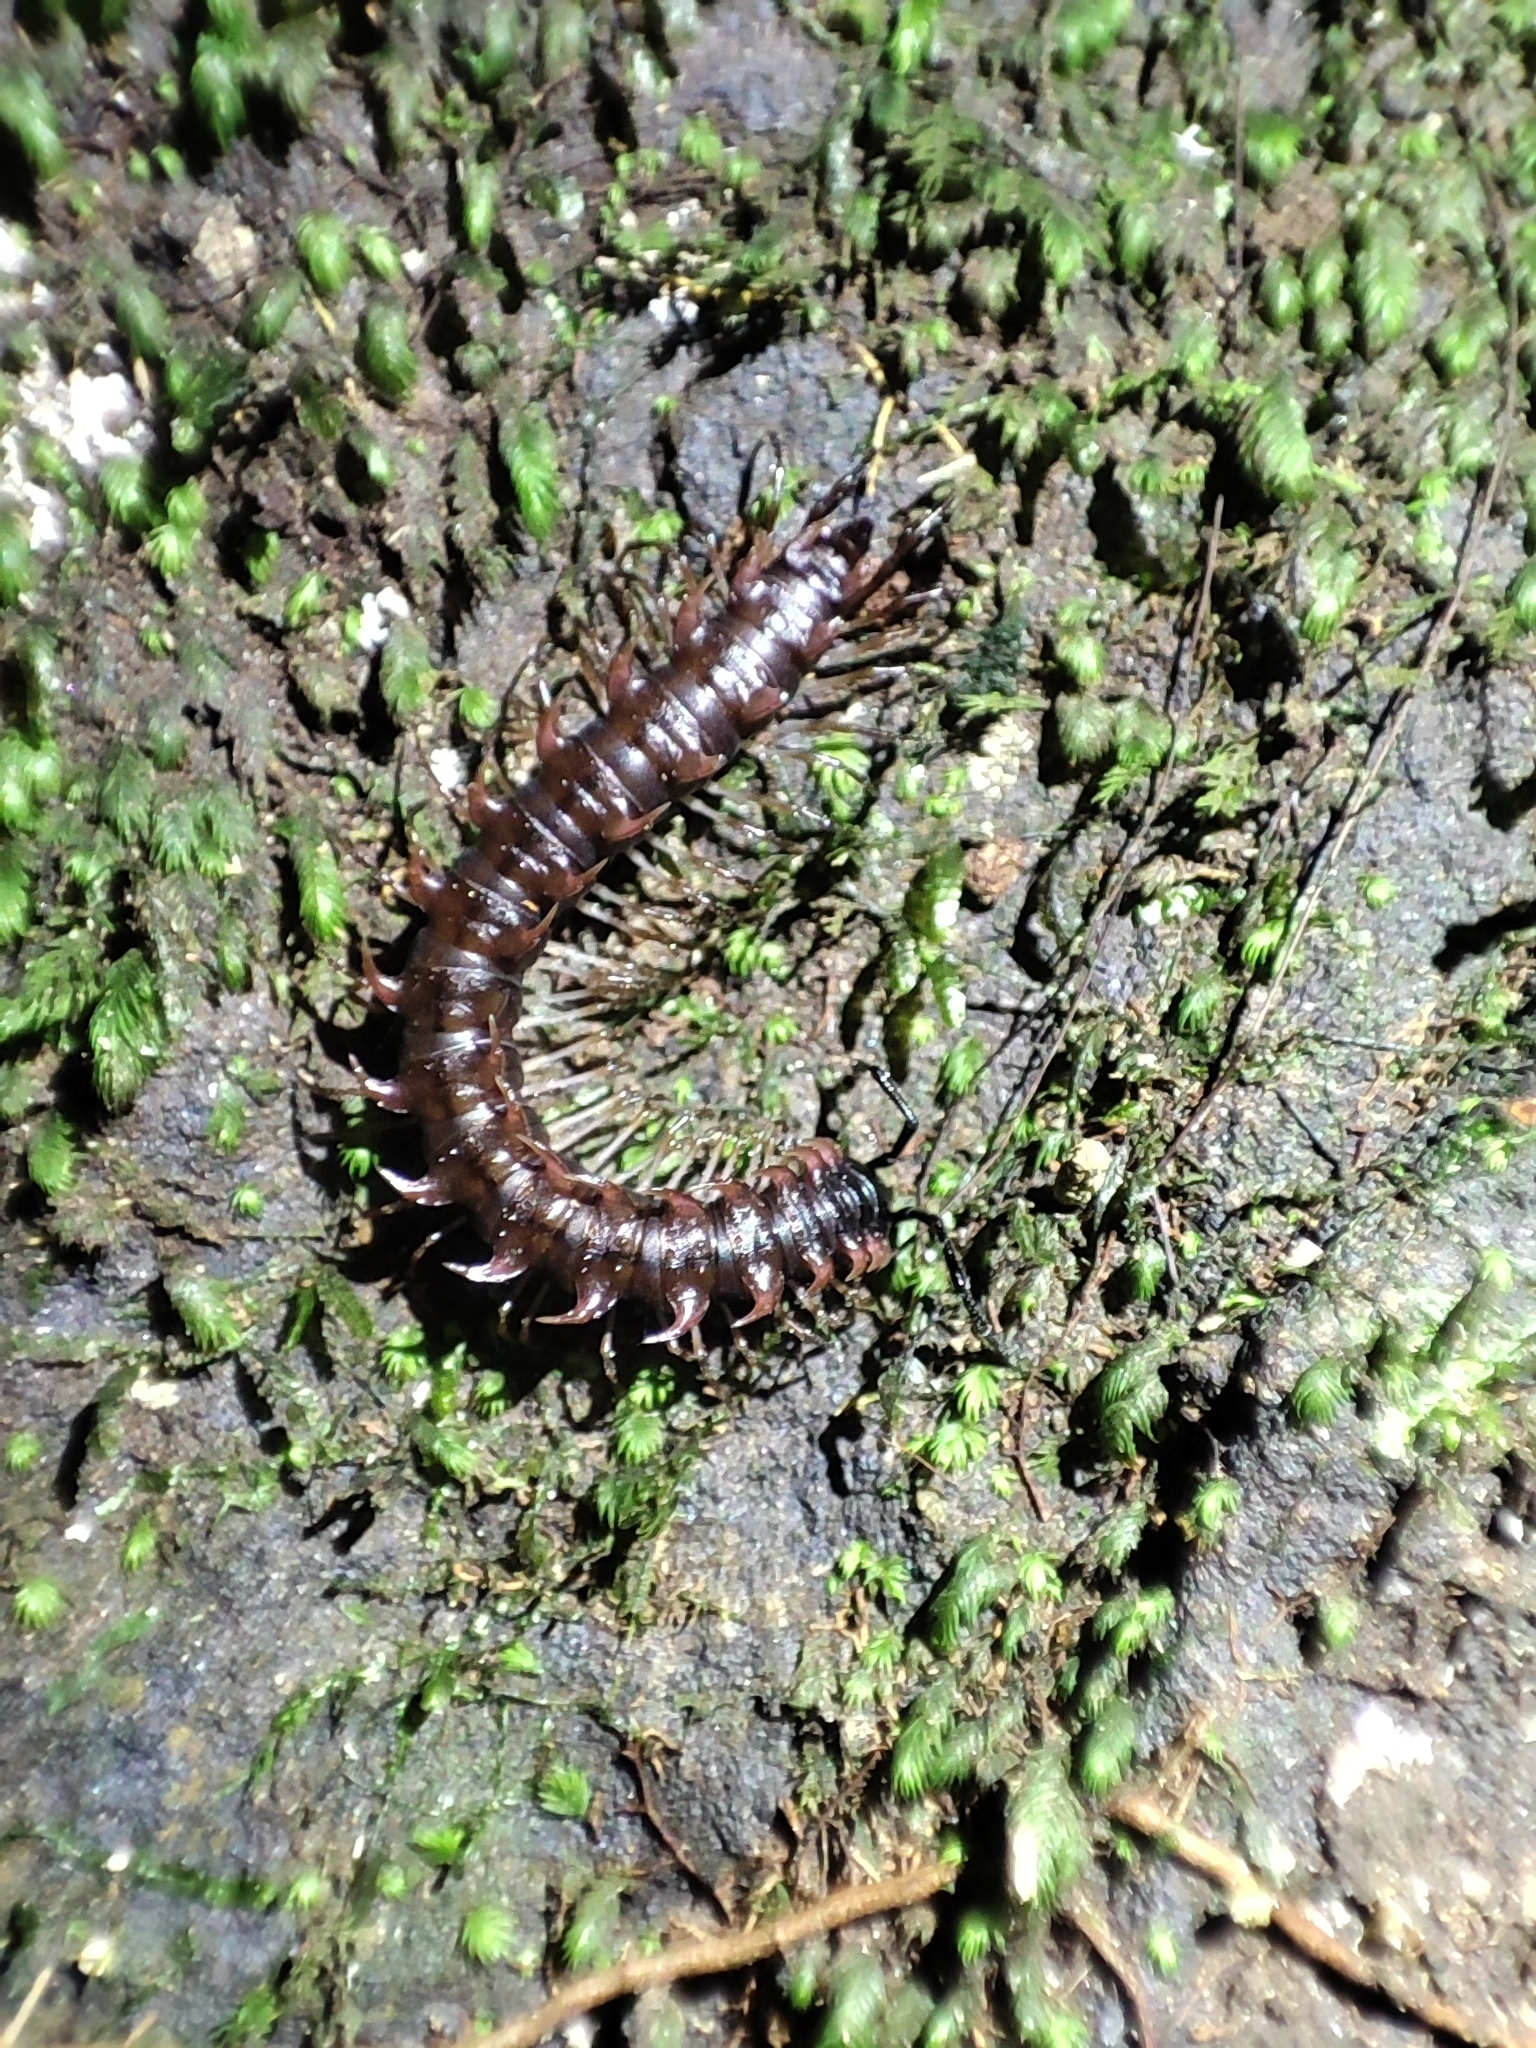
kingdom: Animalia
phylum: Arthropoda
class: Diplopoda
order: Polydesmida
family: Paradoxosomatidae
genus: Desmoxytes
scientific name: Desmoxytes cervina
